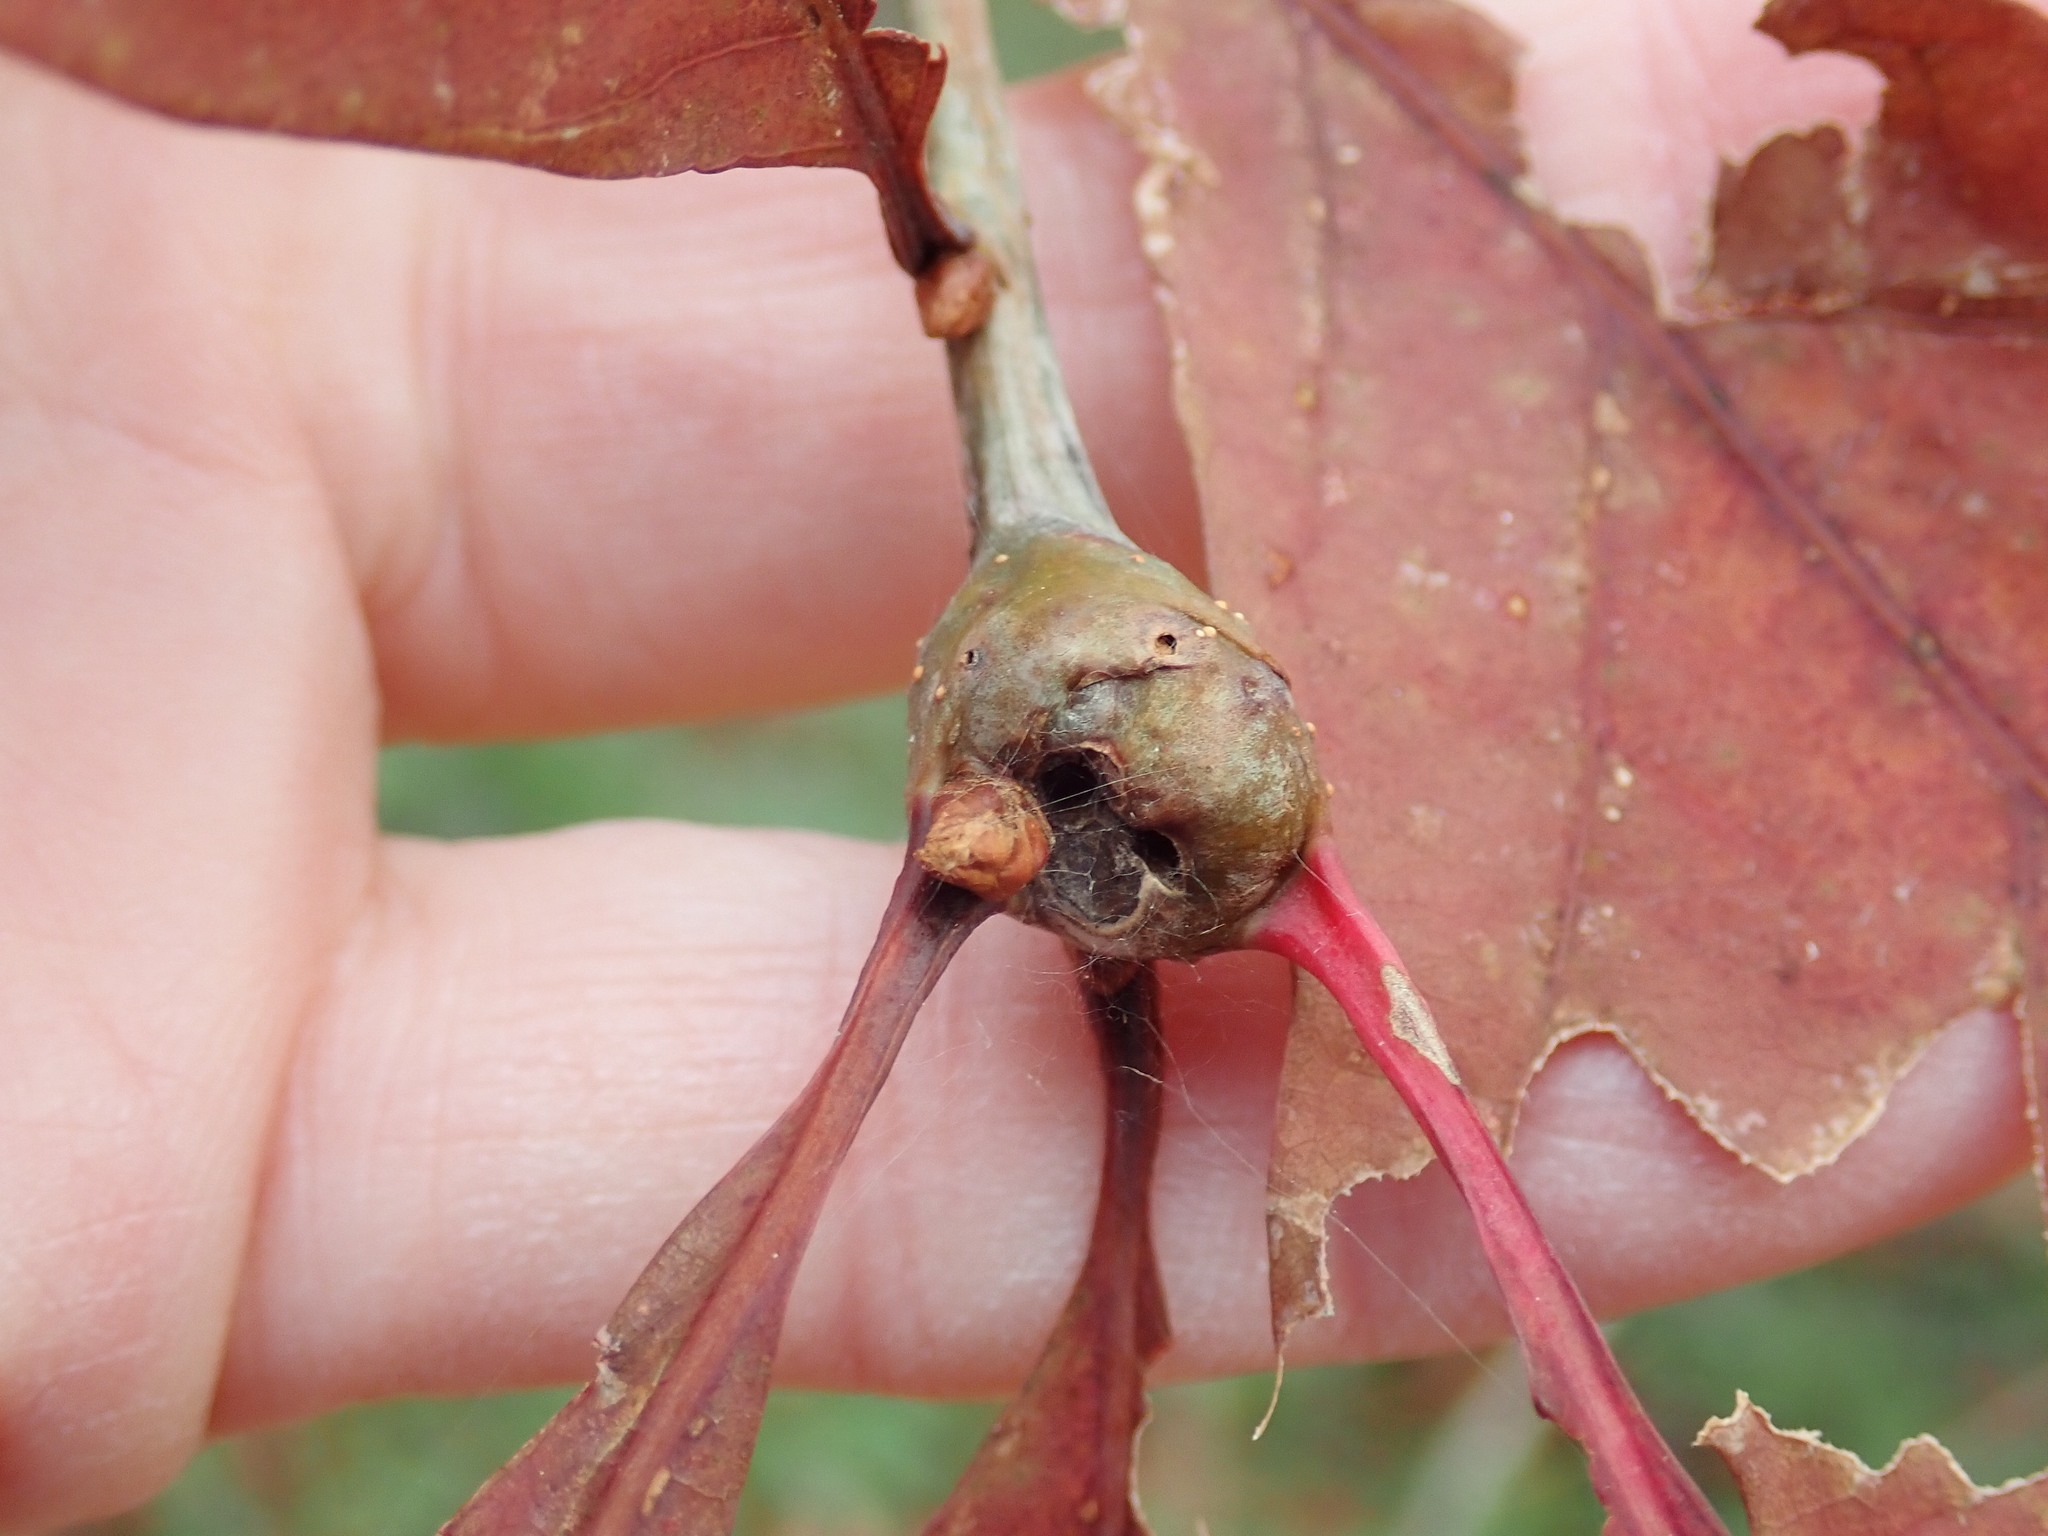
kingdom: Animalia
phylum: Arthropoda
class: Insecta
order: Hymenoptera
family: Cynipidae
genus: Callirhytis
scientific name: Callirhytis clavula
